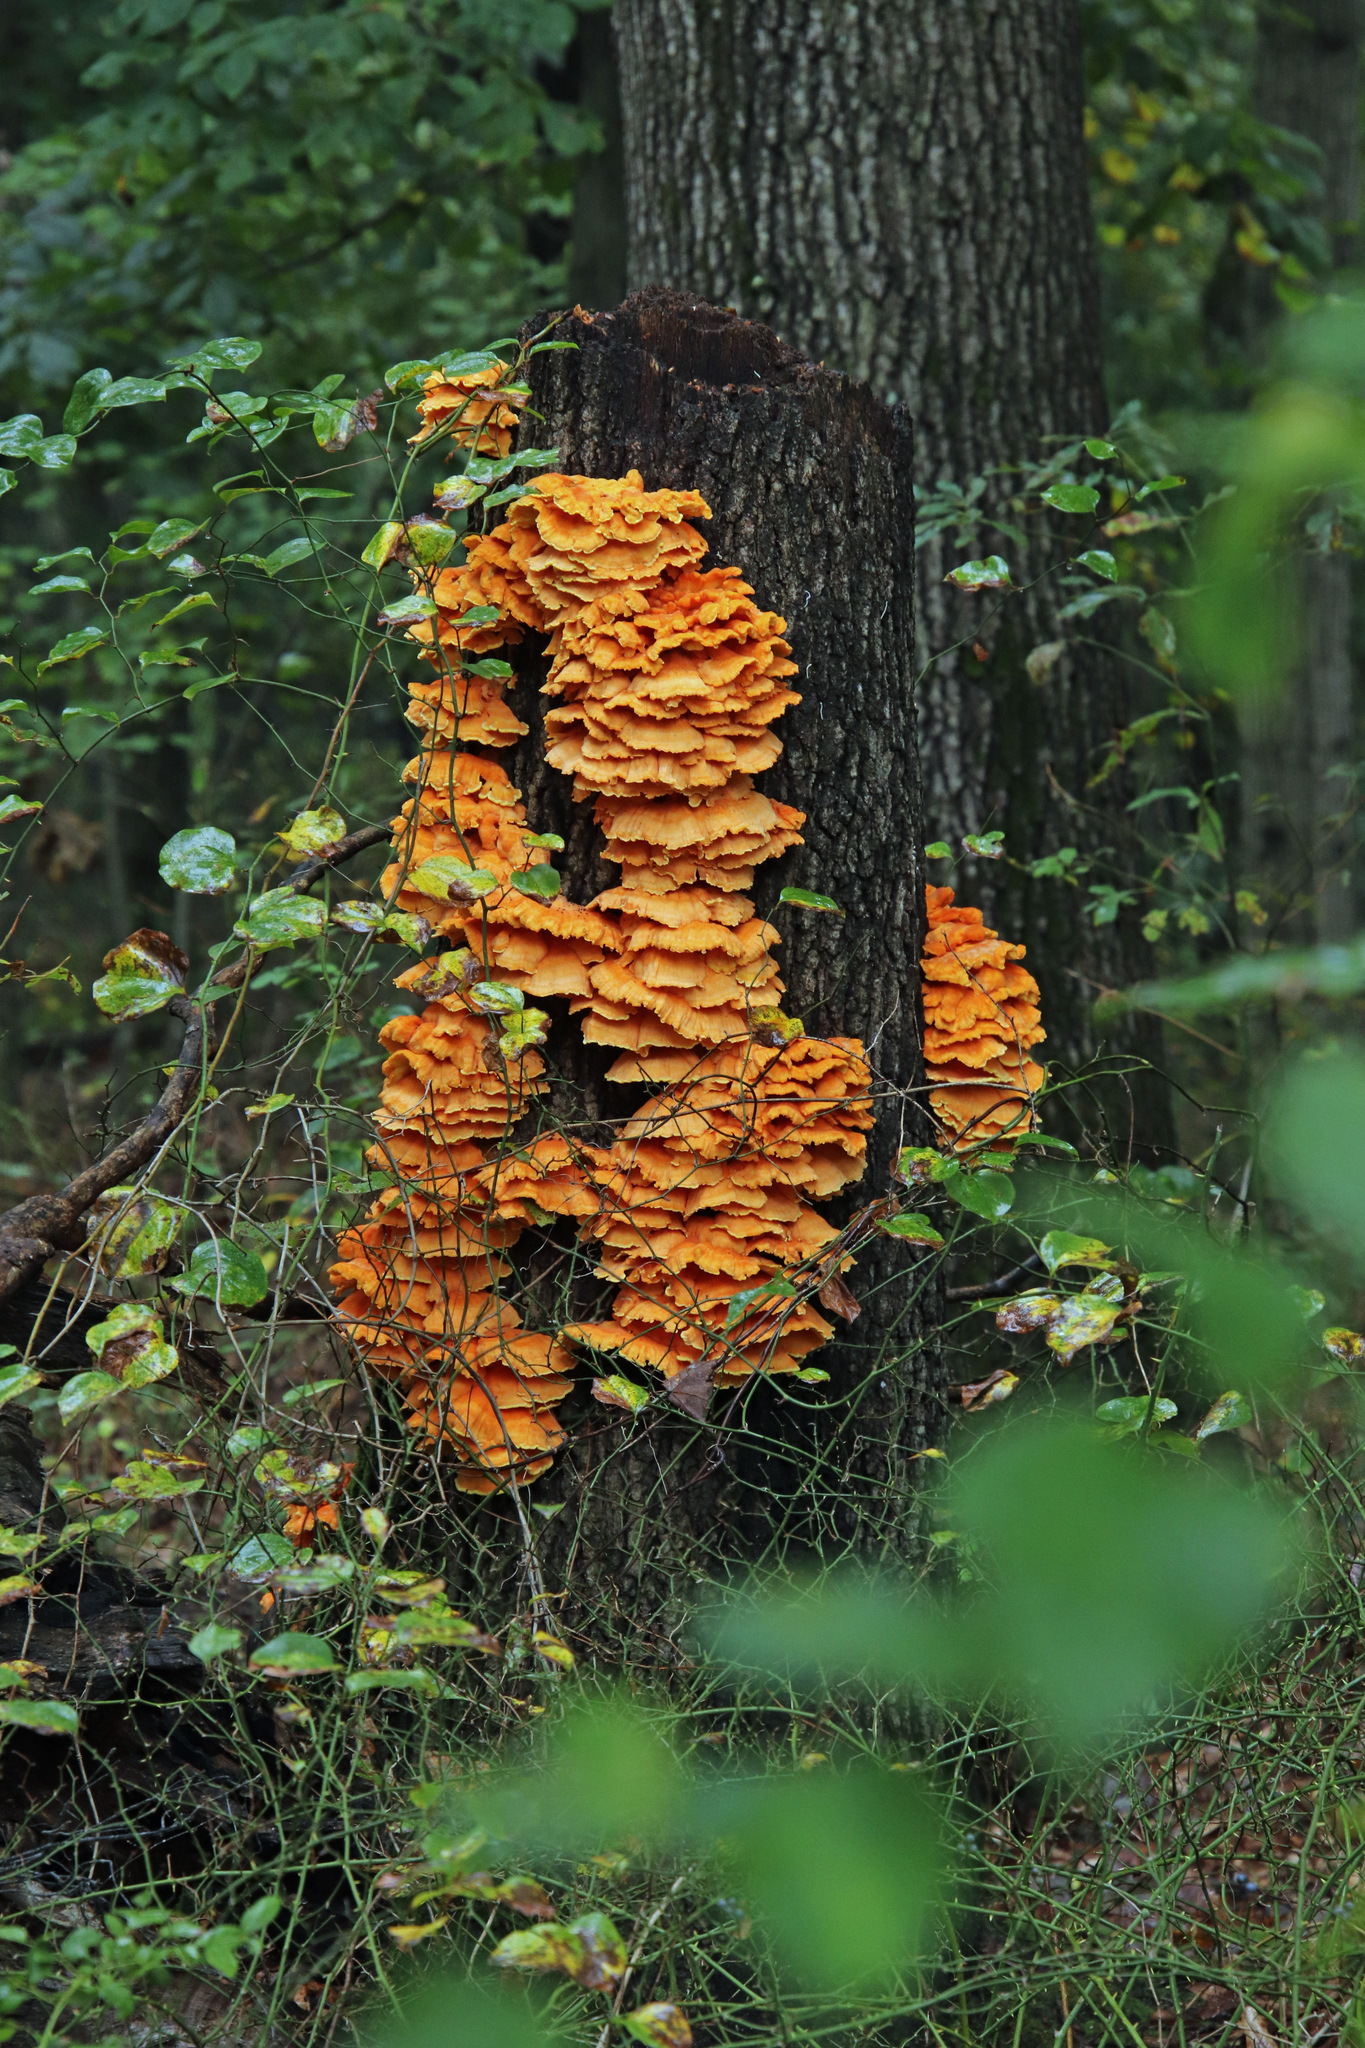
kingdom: Fungi
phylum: Basidiomycota
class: Agaricomycetes
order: Polyporales
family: Laetiporaceae
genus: Laetiporus
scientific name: Laetiporus sulphureus
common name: Chicken of the woods
